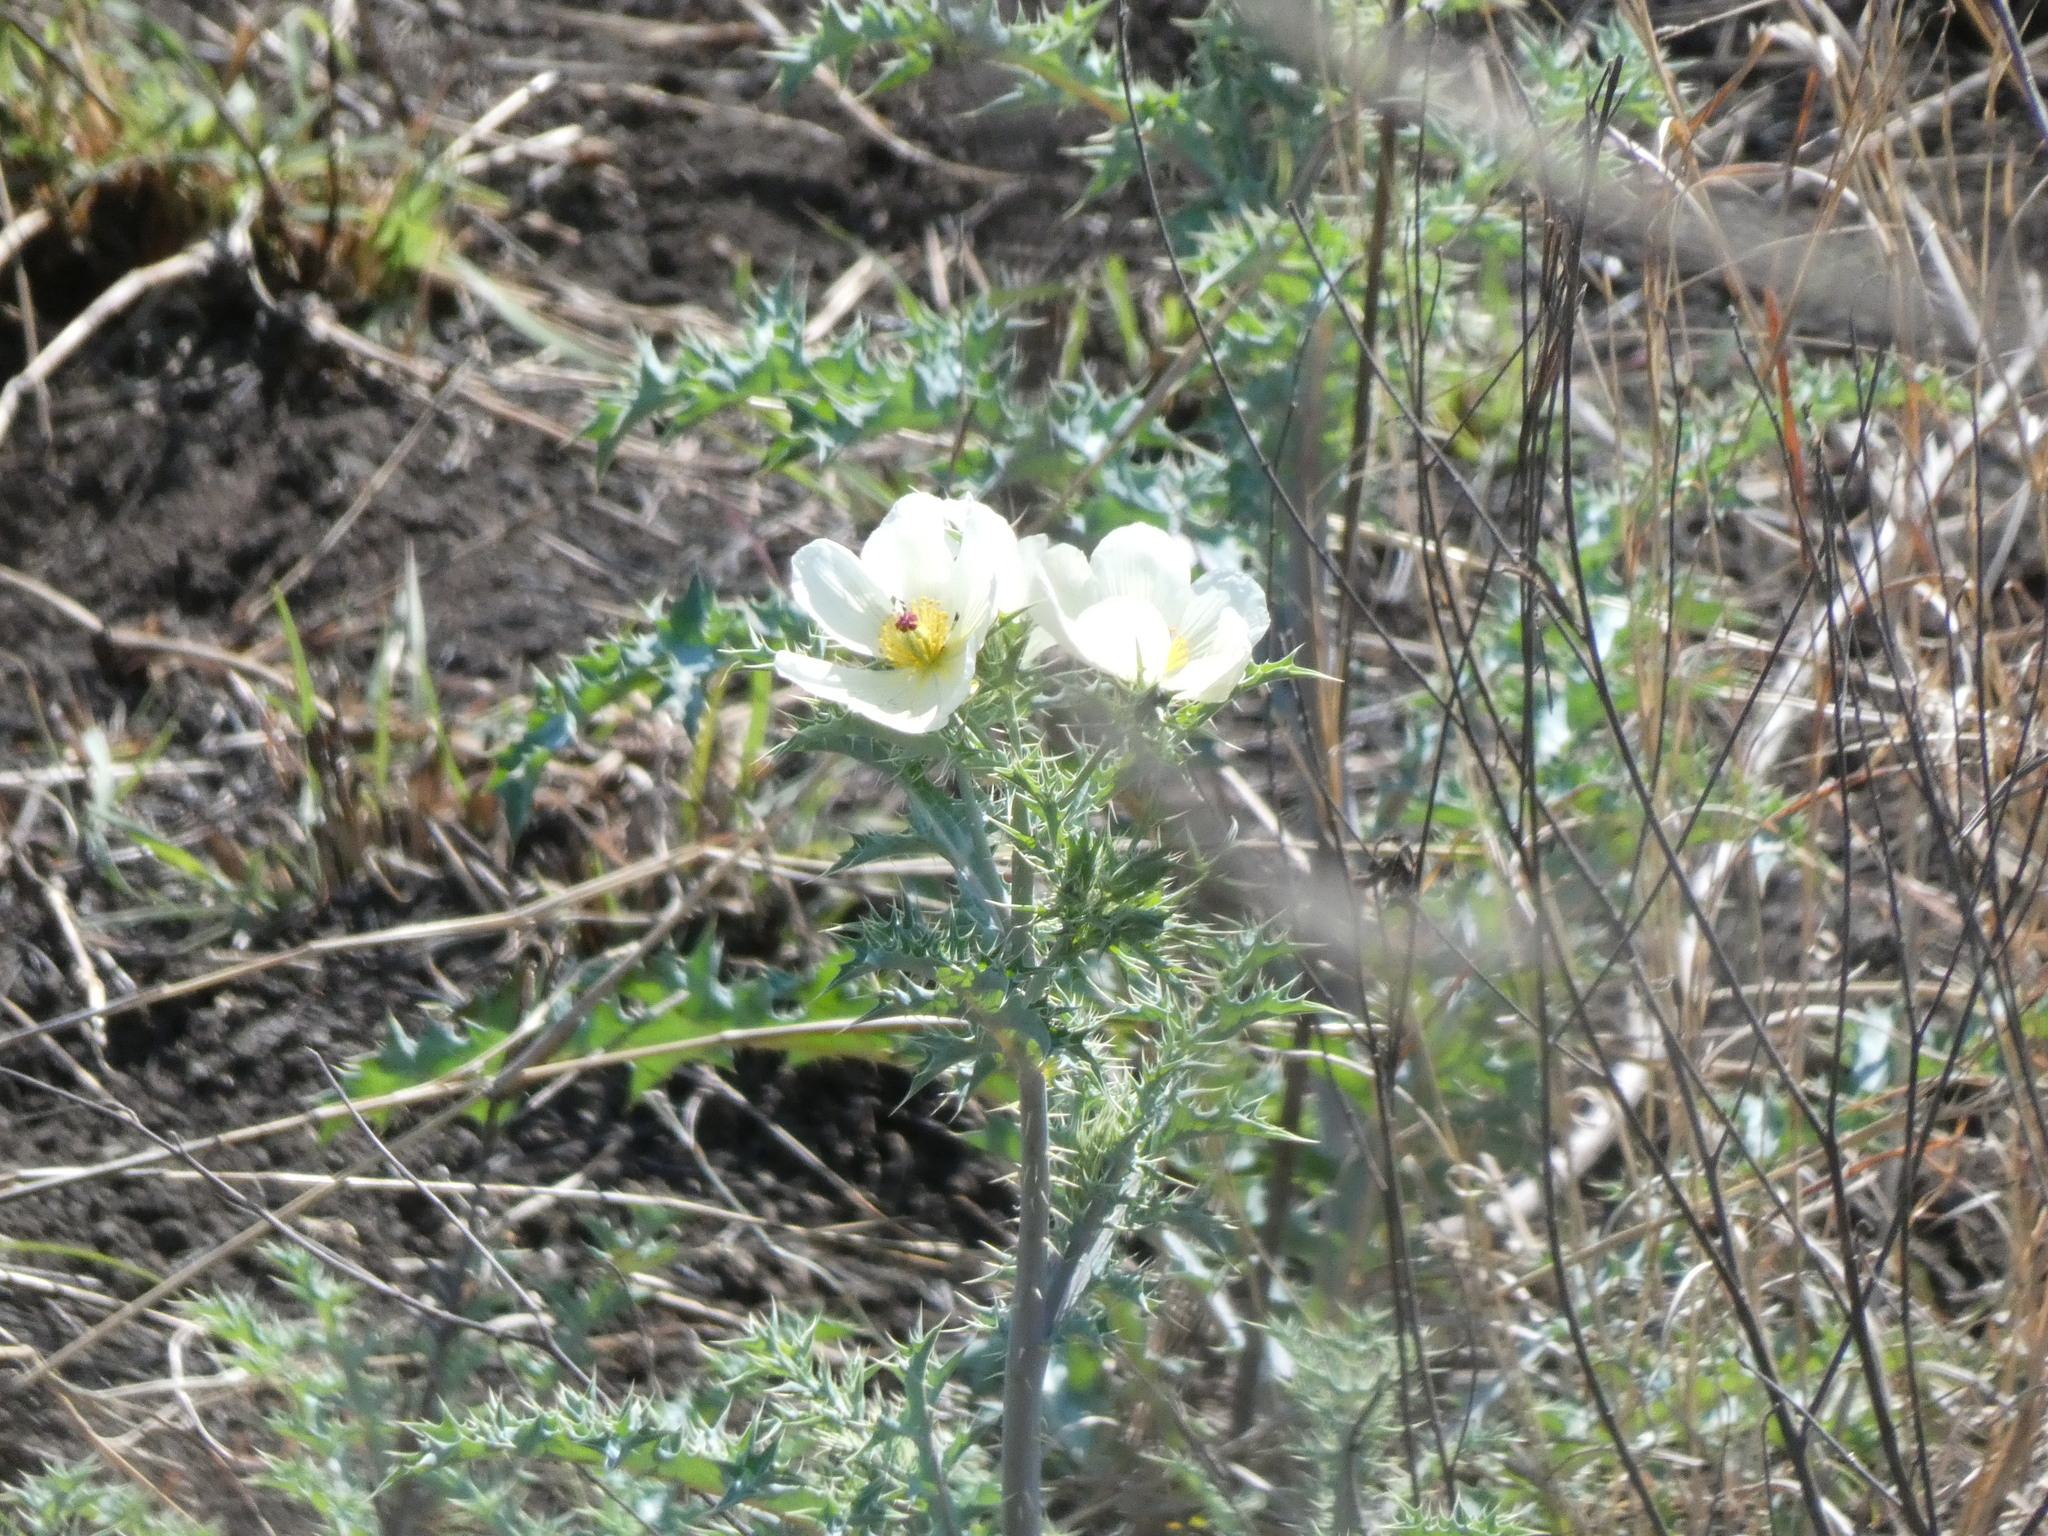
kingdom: Plantae
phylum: Tracheophyta
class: Magnoliopsida
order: Ranunculales
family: Papaveraceae
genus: Argemone
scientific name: Argemone ochroleuca
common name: White-flower mexican-poppy
